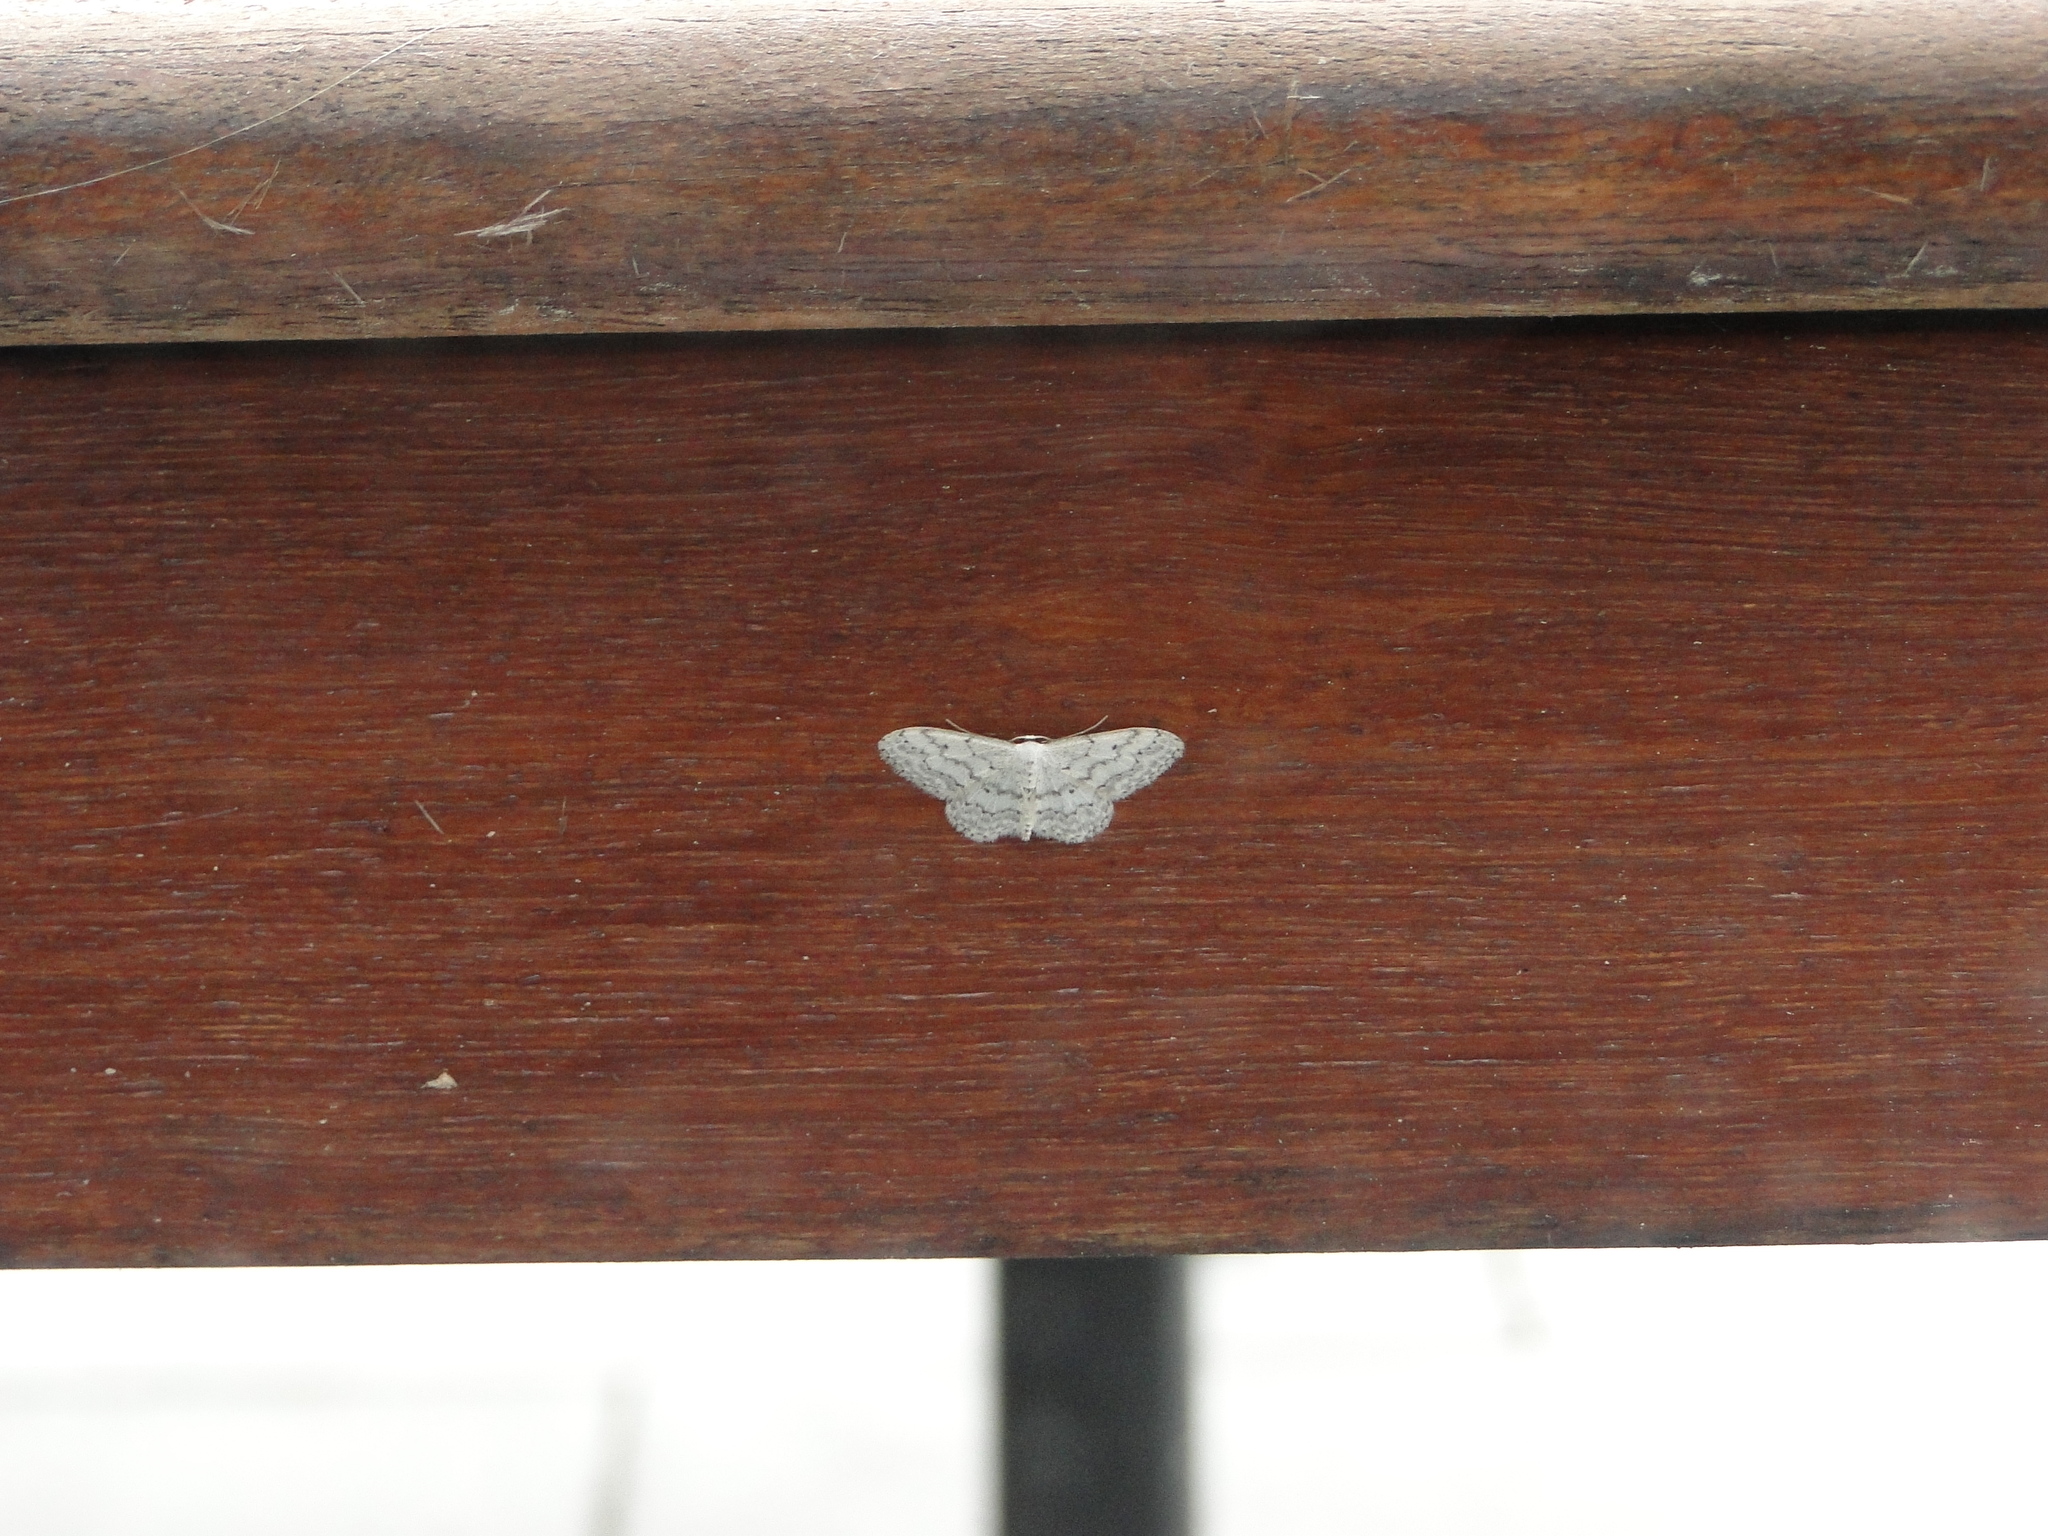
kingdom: Animalia
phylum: Arthropoda
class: Insecta
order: Lepidoptera
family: Geometridae
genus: Idaea
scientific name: Idaea seriata
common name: Small dusty wave
